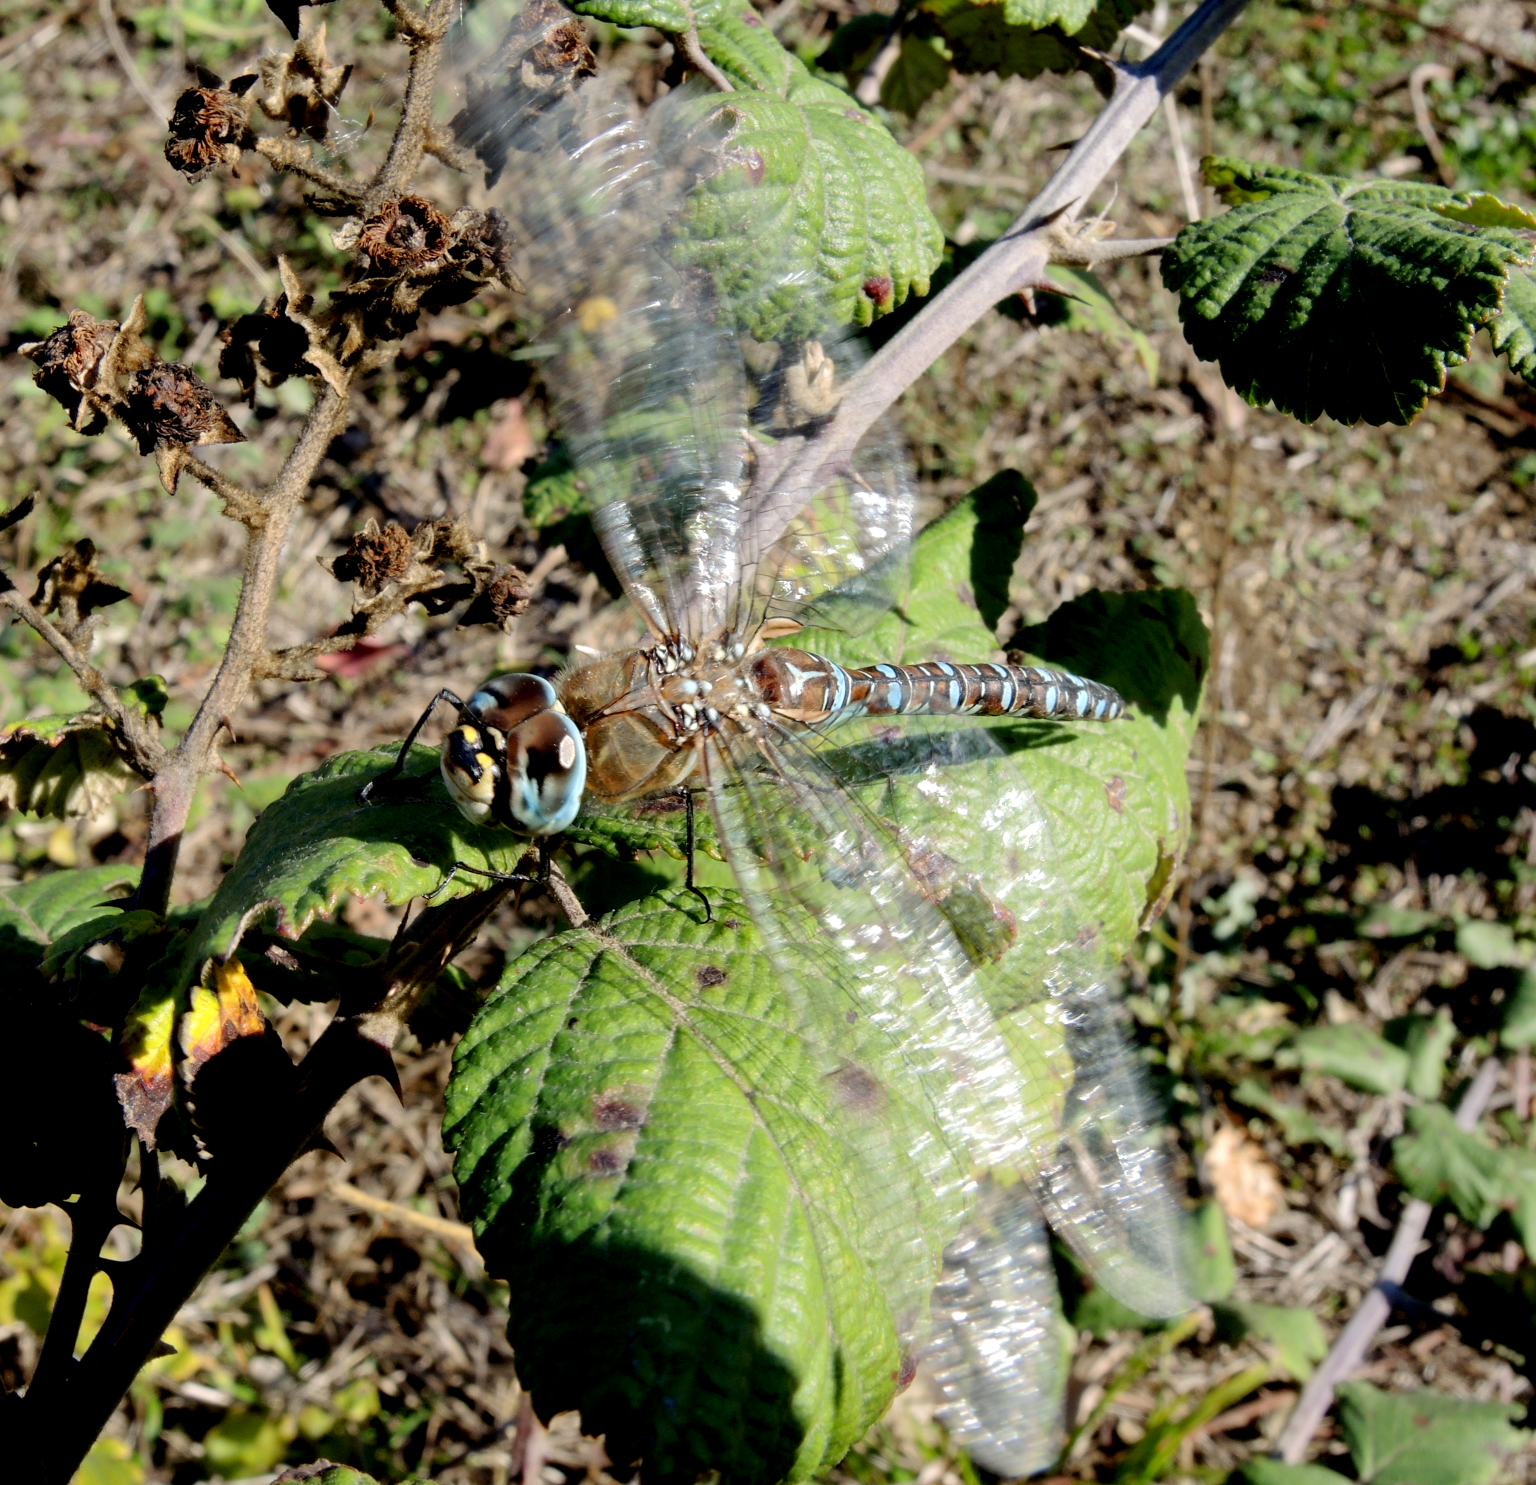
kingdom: Animalia
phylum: Arthropoda
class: Insecta
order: Odonata
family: Aeshnidae
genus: Aeshna
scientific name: Aeshna mixta
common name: Migrant hawker
